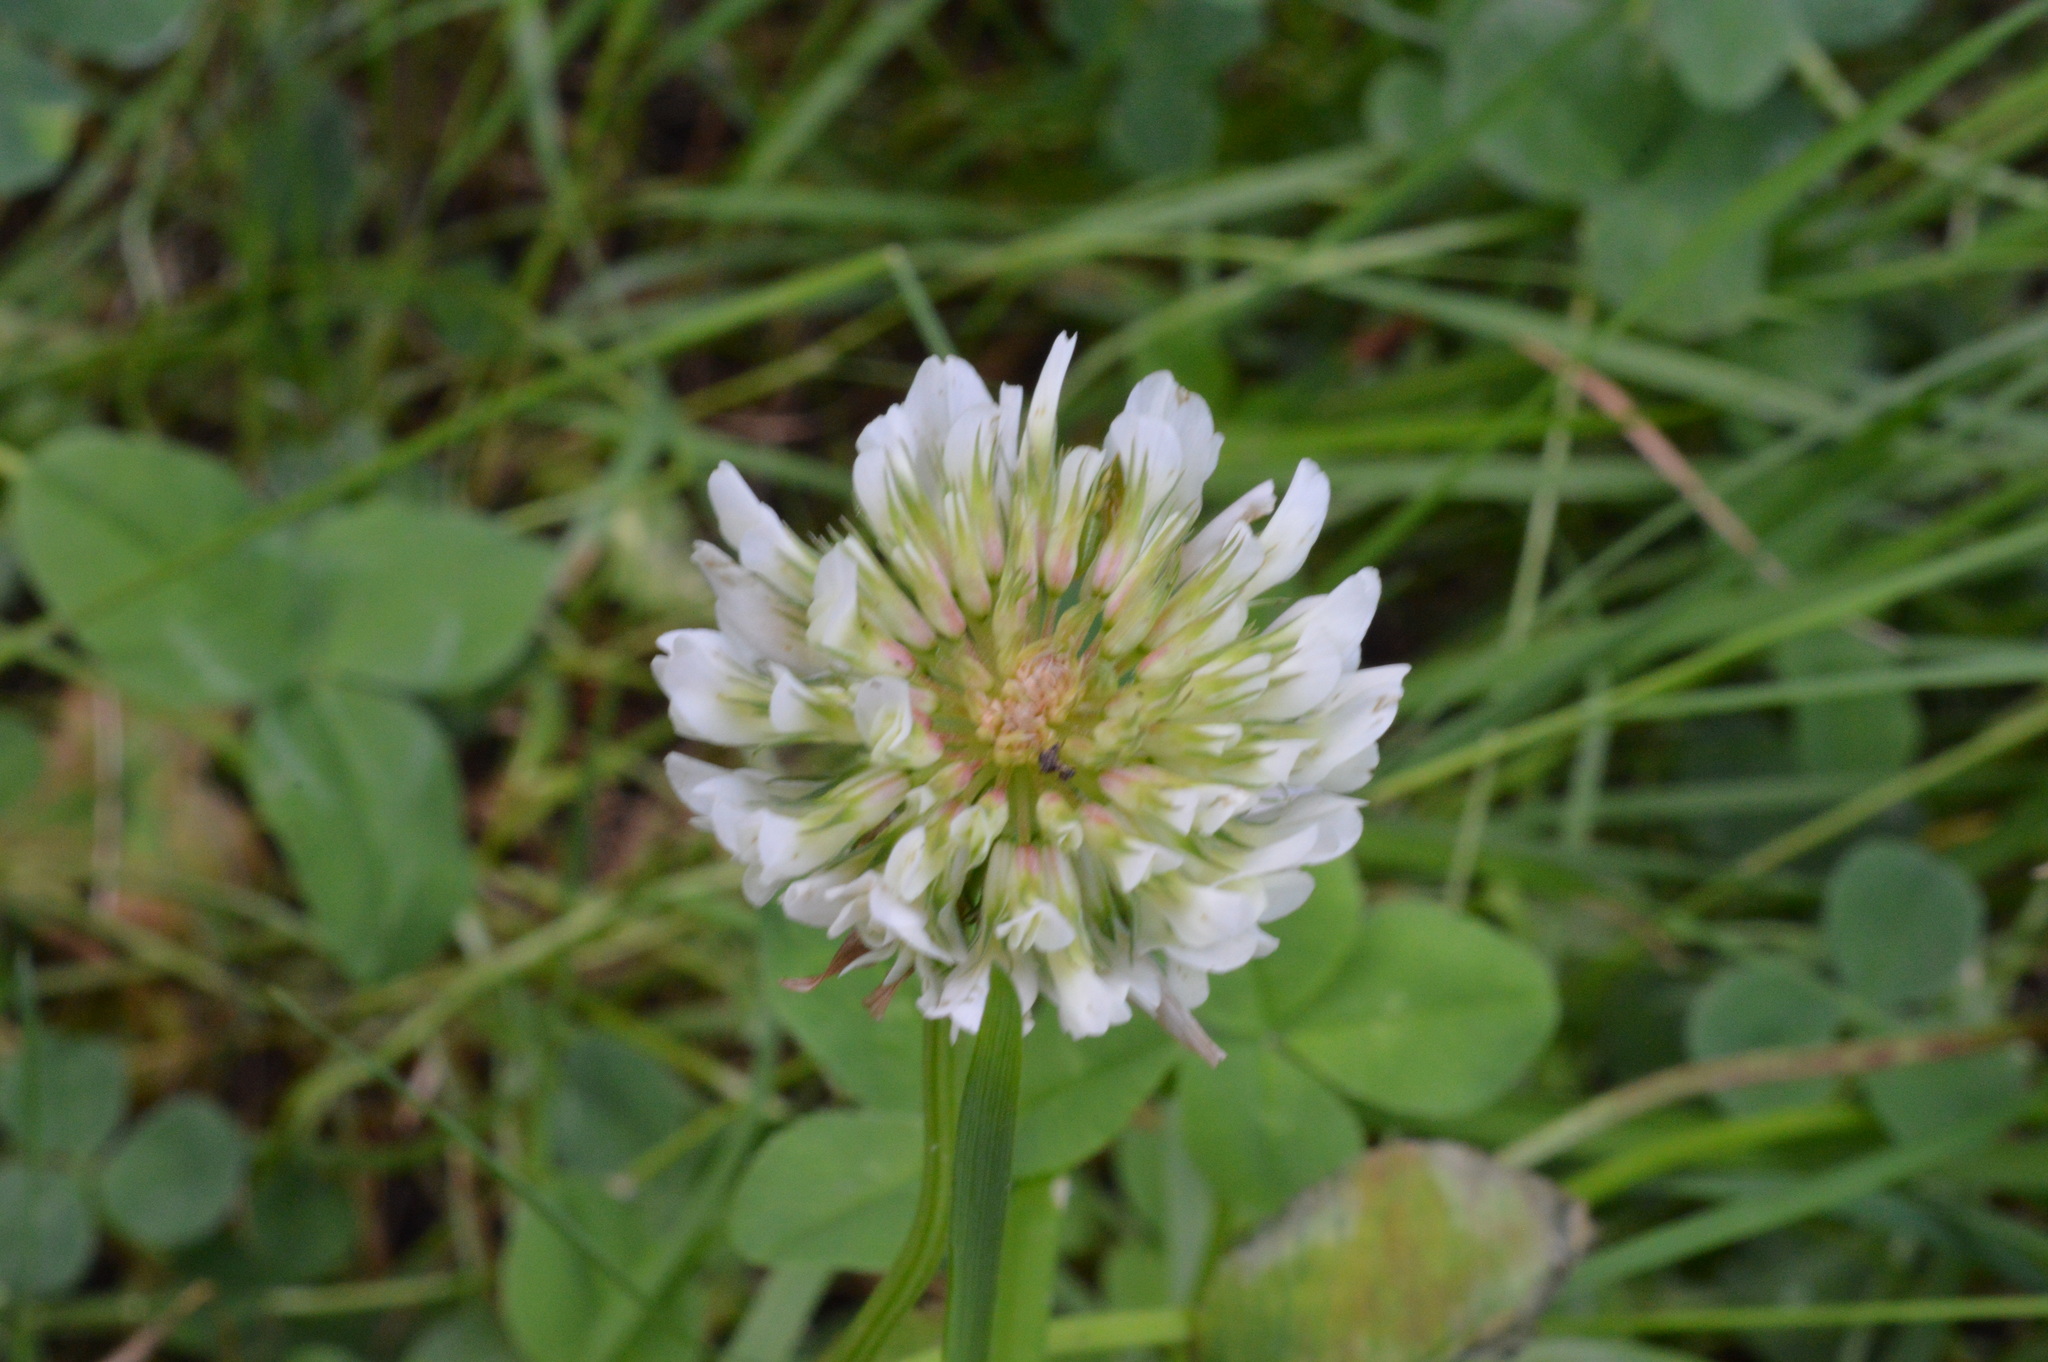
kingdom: Plantae
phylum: Tracheophyta
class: Magnoliopsida
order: Fabales
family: Fabaceae
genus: Trifolium
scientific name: Trifolium repens
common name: White clover
